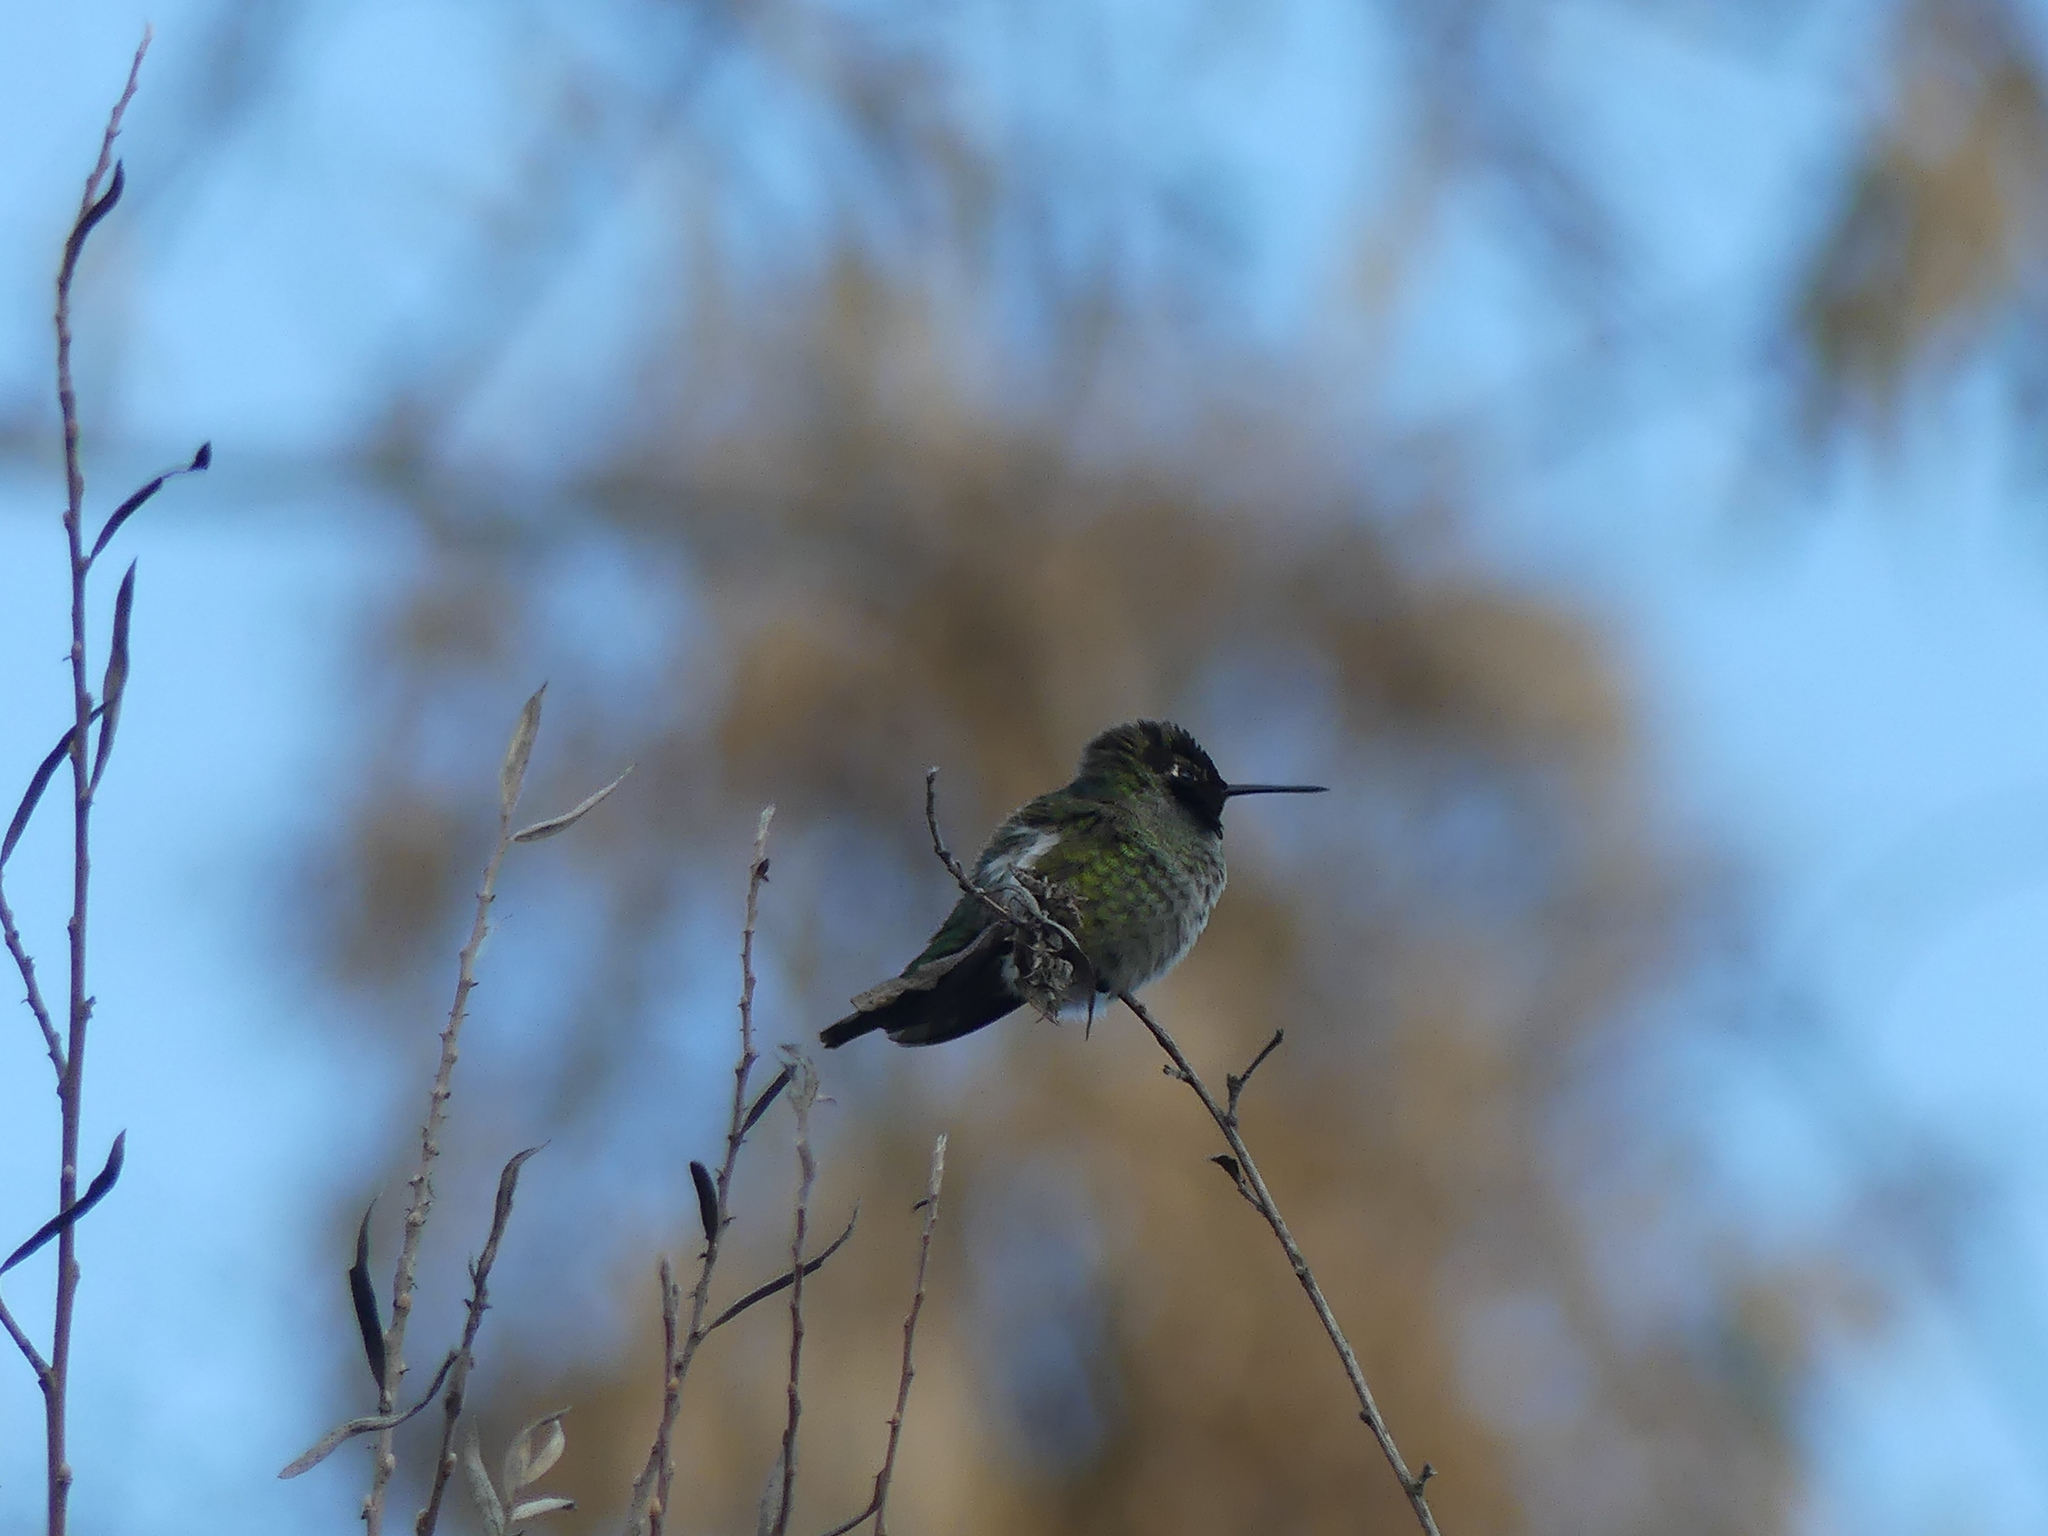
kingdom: Animalia
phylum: Chordata
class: Aves
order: Apodiformes
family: Trochilidae
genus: Calypte
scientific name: Calypte anna
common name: Anna's hummingbird
